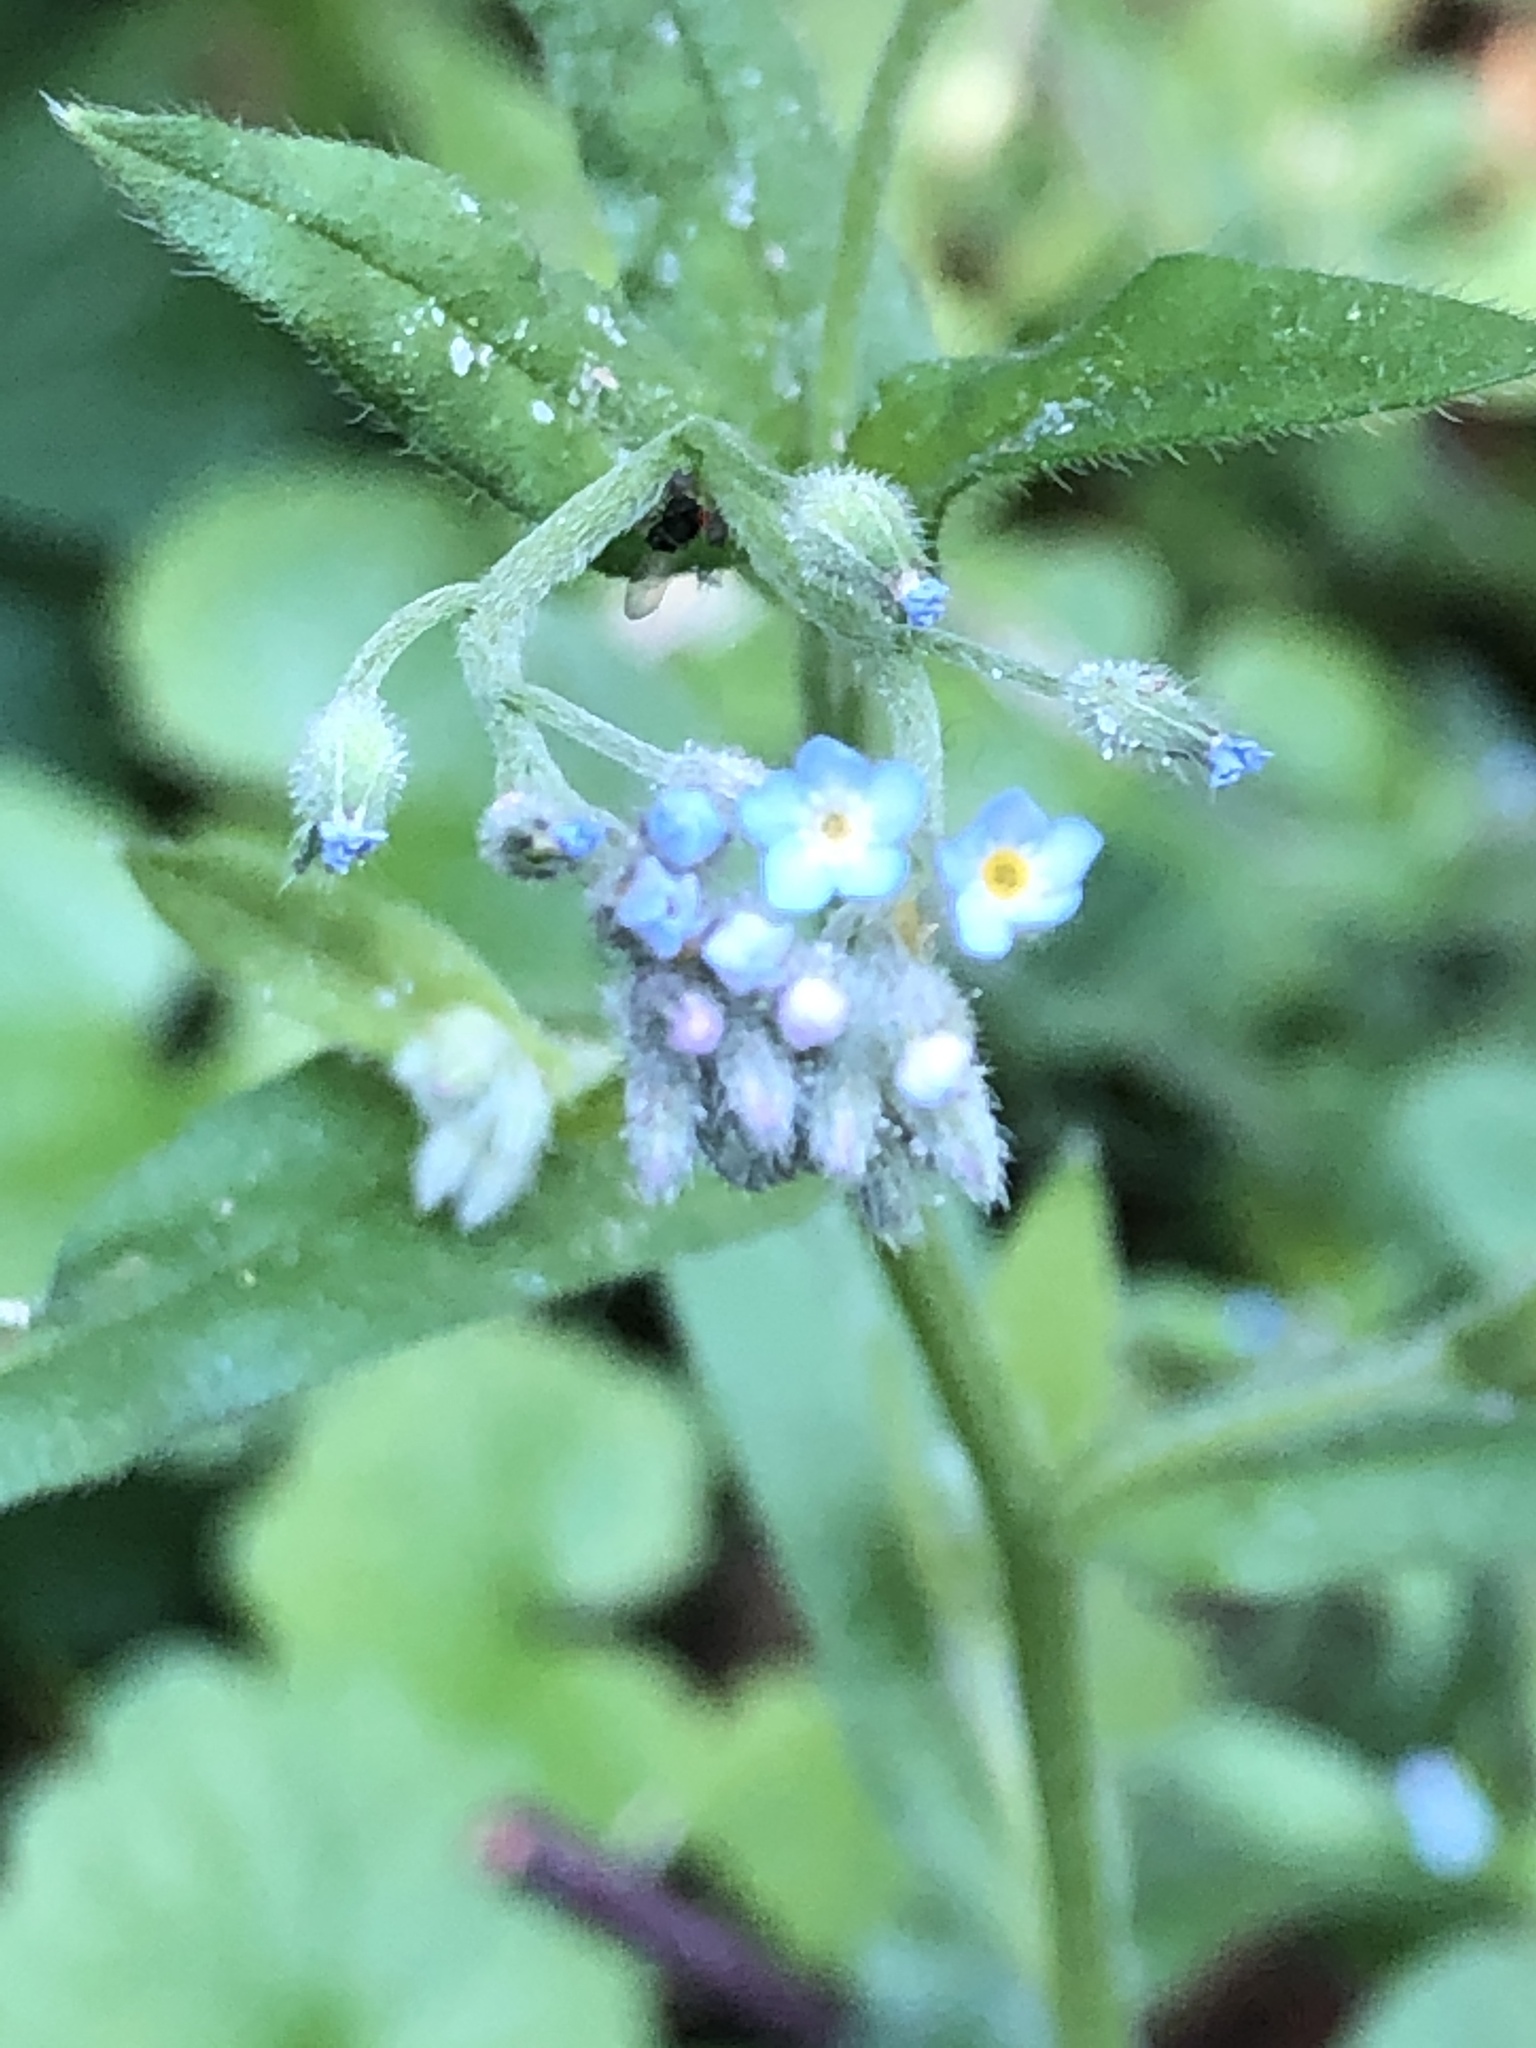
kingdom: Plantae
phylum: Tracheophyta
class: Magnoliopsida
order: Boraginales
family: Boraginaceae
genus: Myosotis
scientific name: Myosotis arvensis
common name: Field forget-me-not
